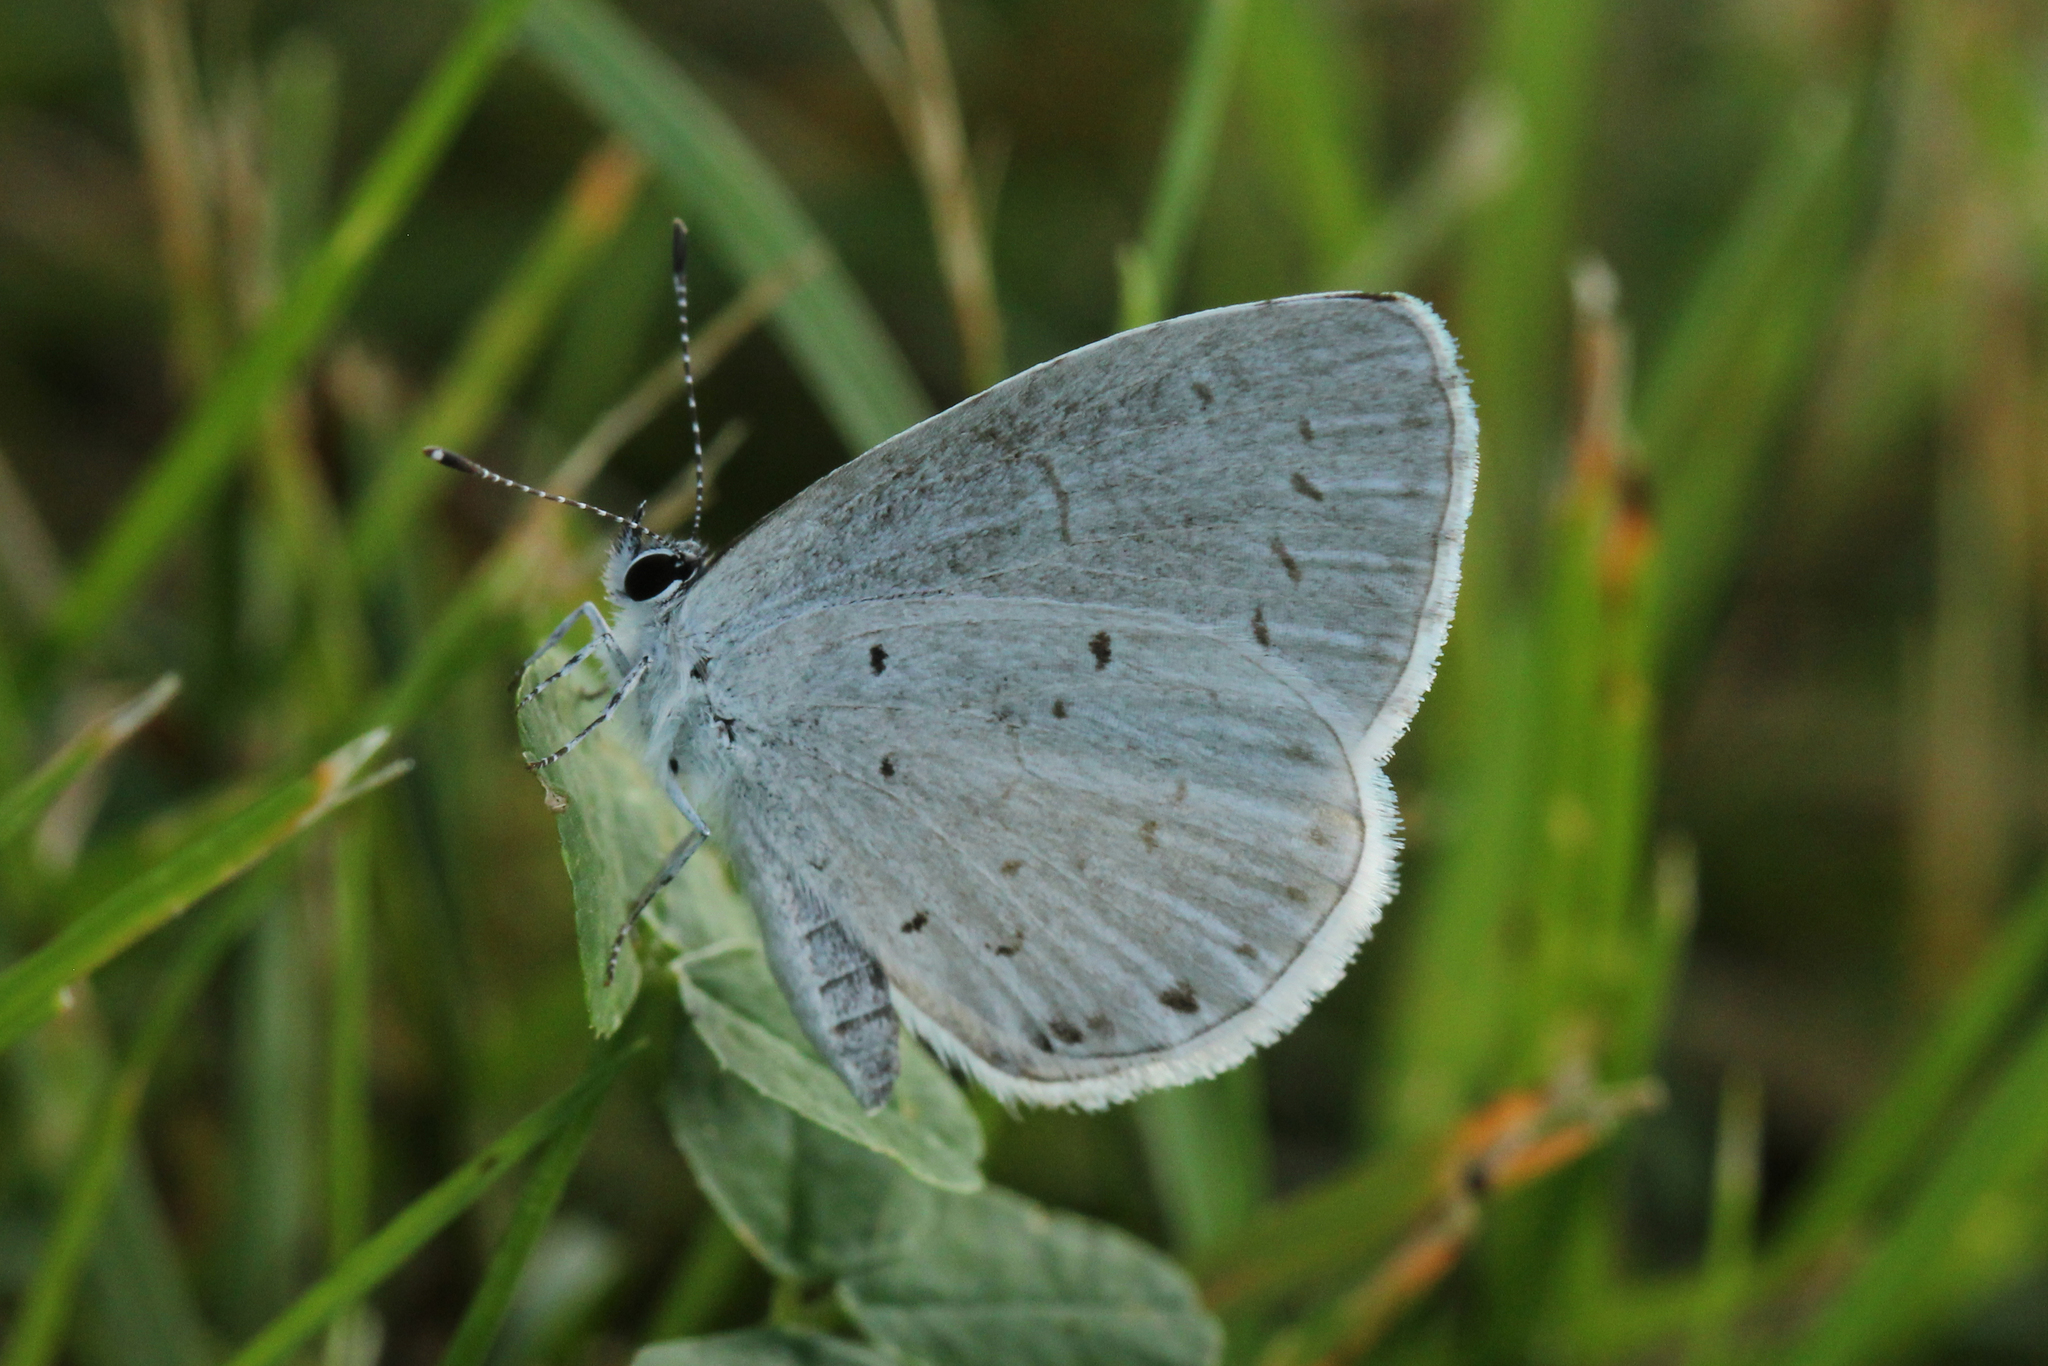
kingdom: Animalia
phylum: Arthropoda
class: Insecta
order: Lepidoptera
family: Lycaenidae
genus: Cyaniris
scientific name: Cyaniris neglecta
